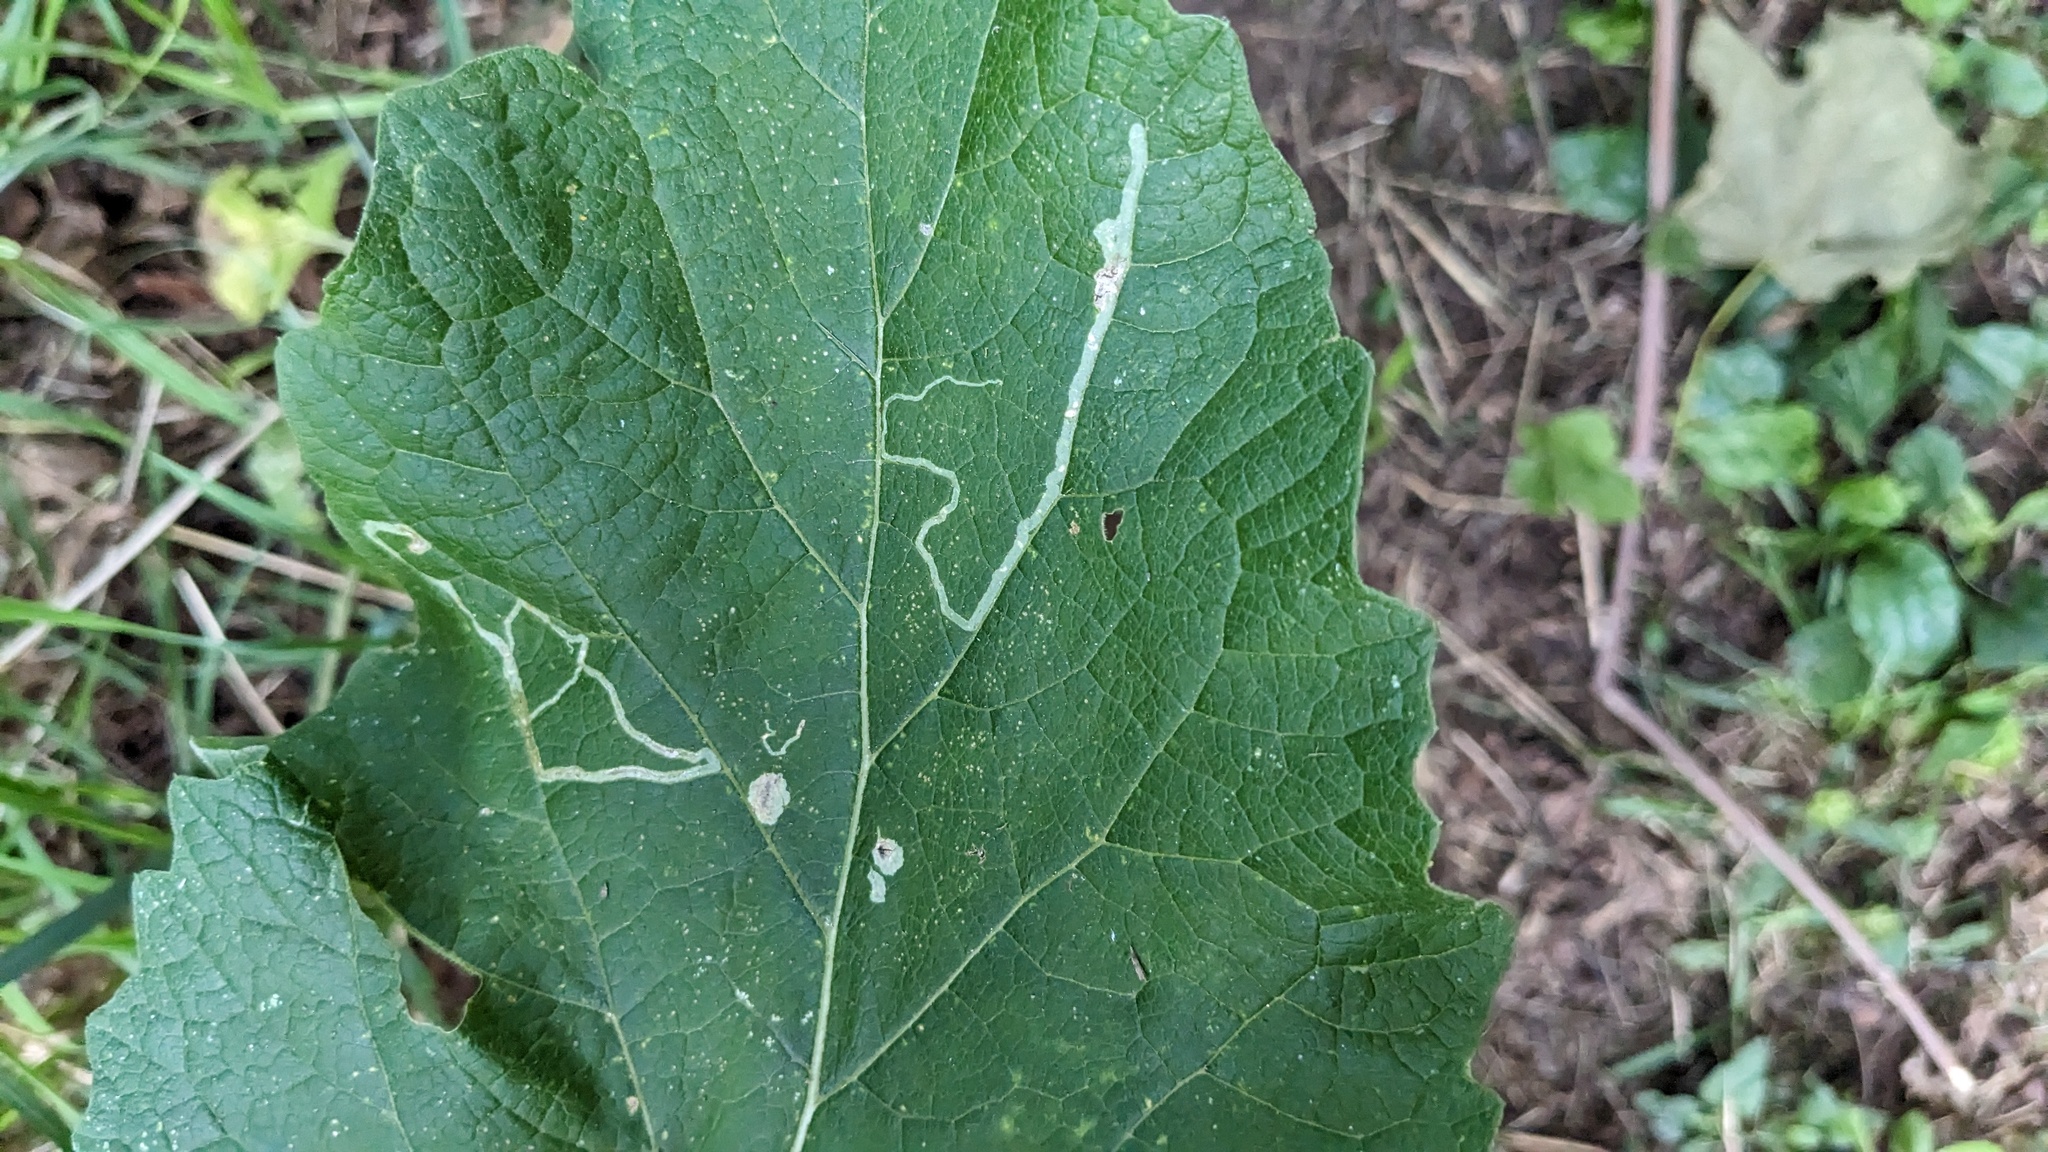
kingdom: Animalia
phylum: Arthropoda
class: Insecta
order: Diptera
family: Agromyzidae
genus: Liriomyza
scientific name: Liriomyza arctii
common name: Burdock leafminer
